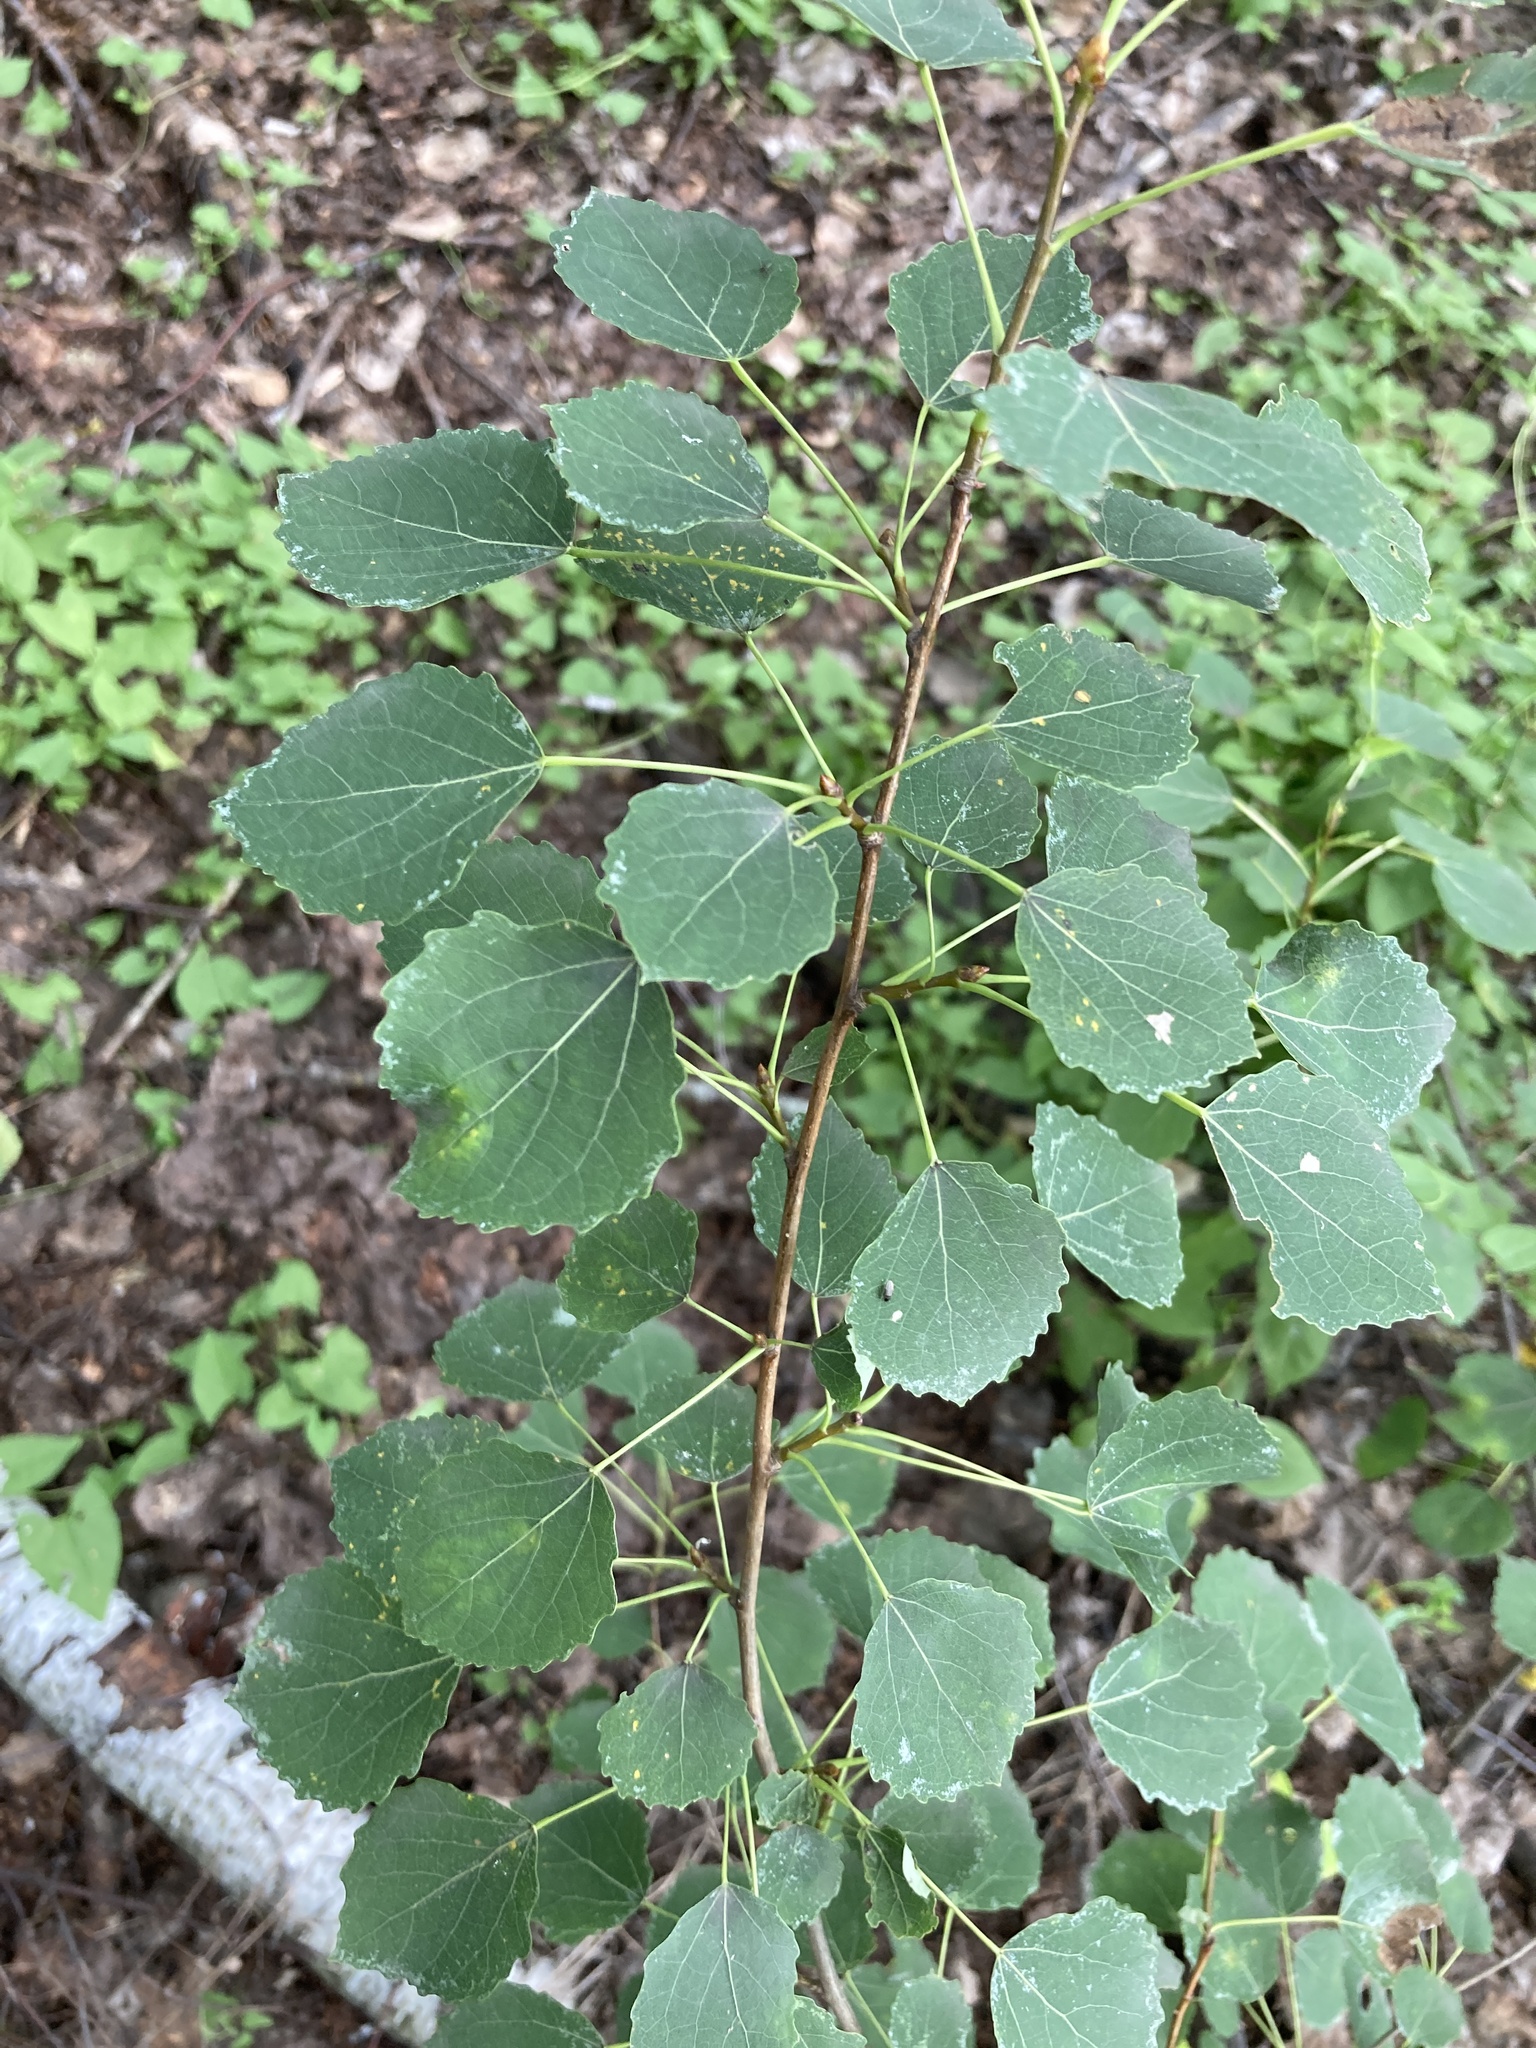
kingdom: Plantae
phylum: Tracheophyta
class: Magnoliopsida
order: Malpighiales
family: Salicaceae
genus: Populus
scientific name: Populus tremula
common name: European aspen
